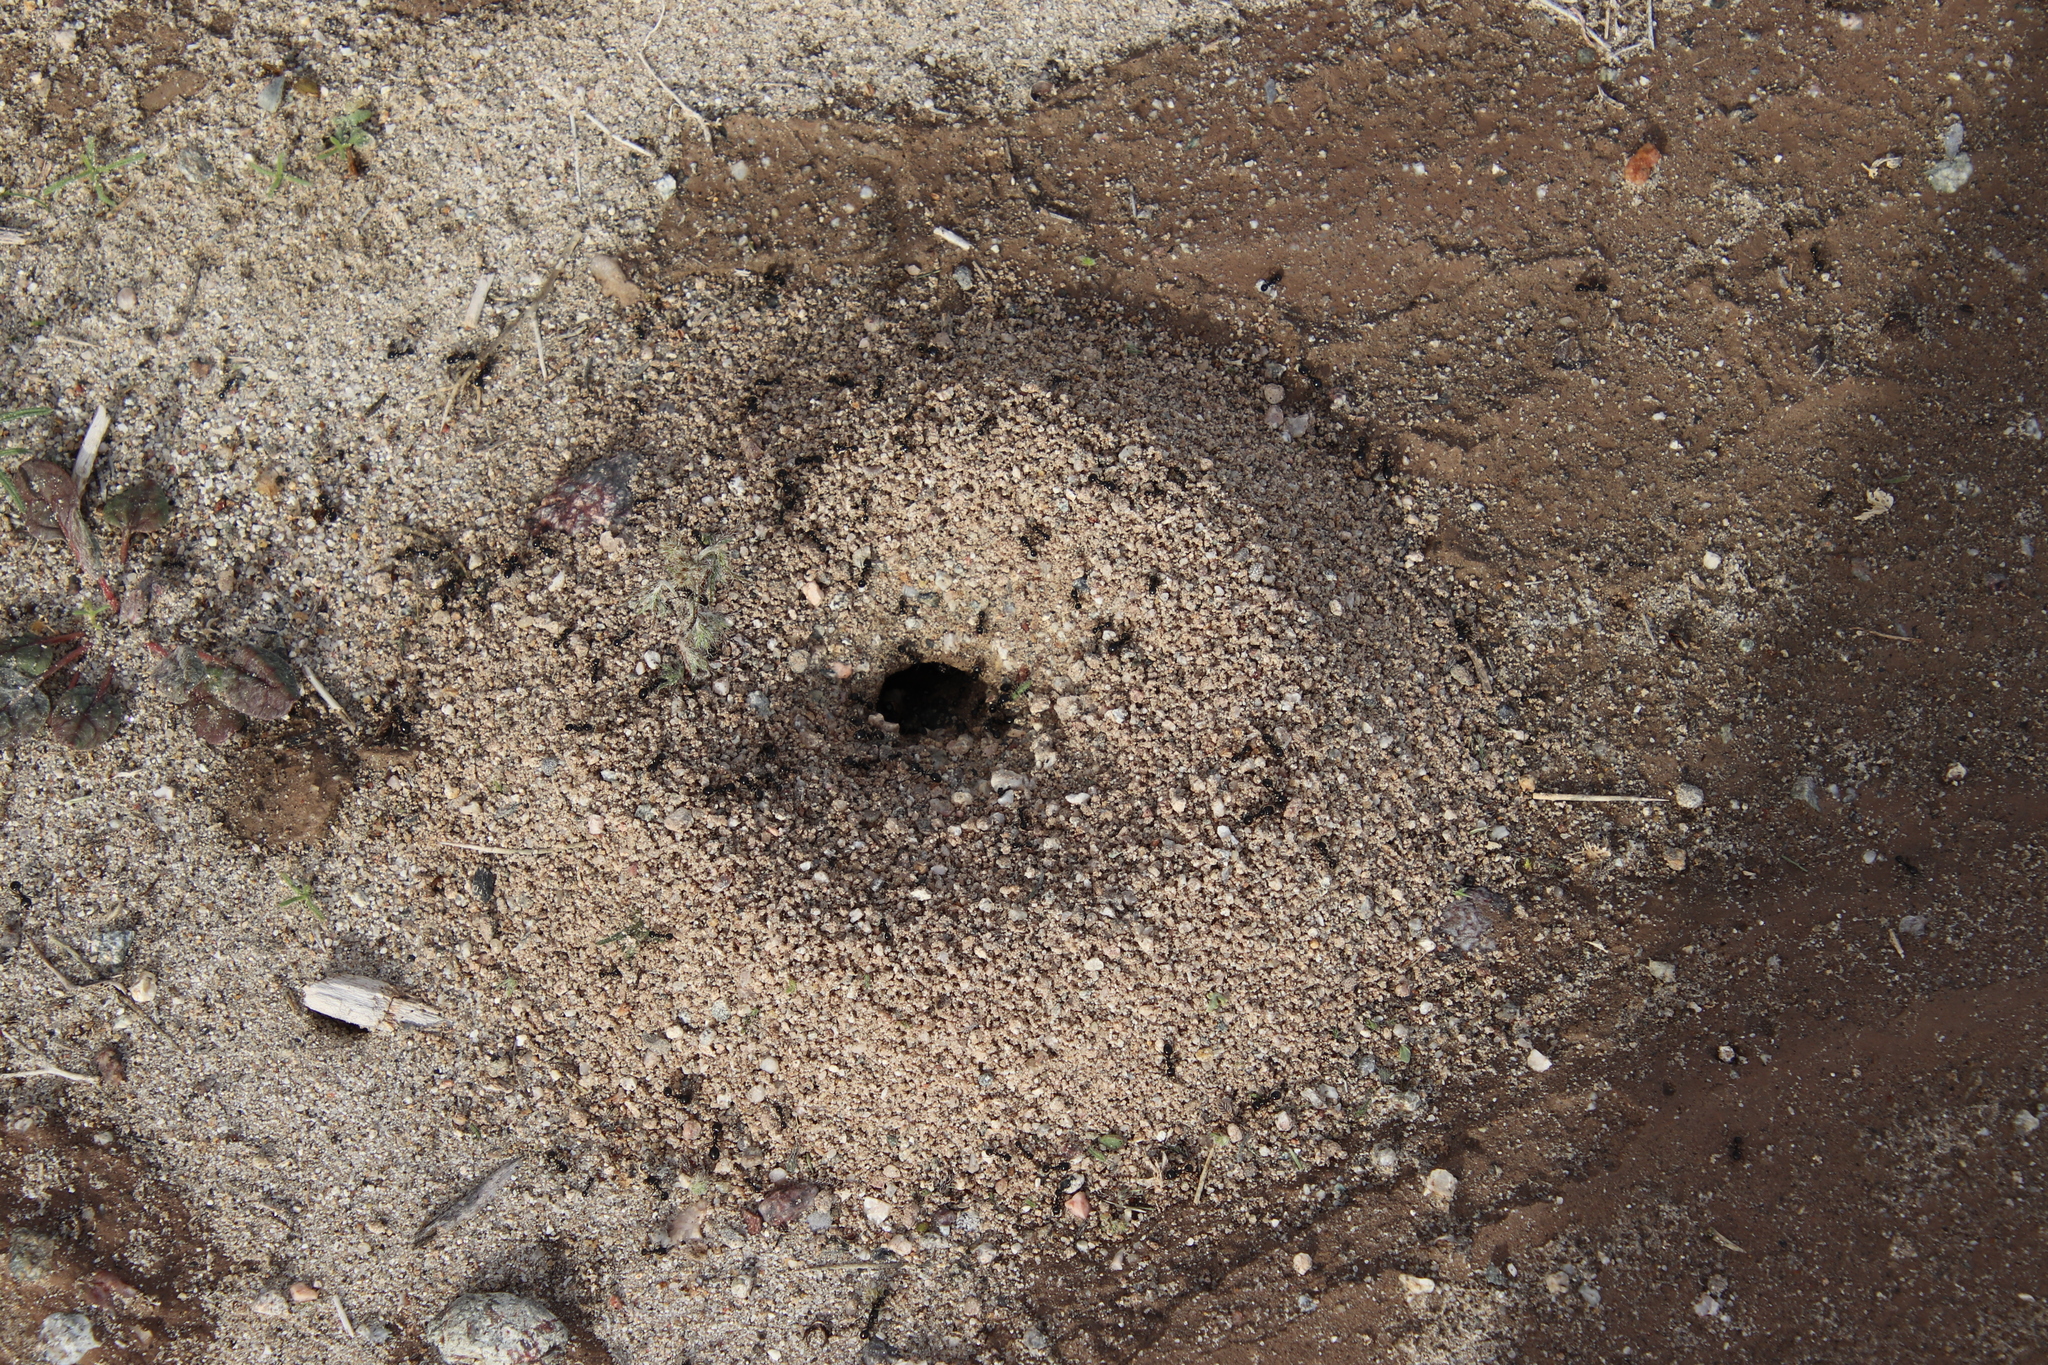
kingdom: Animalia
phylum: Arthropoda
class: Insecta
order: Hymenoptera
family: Formicidae
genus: Messor
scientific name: Messor pergandei
